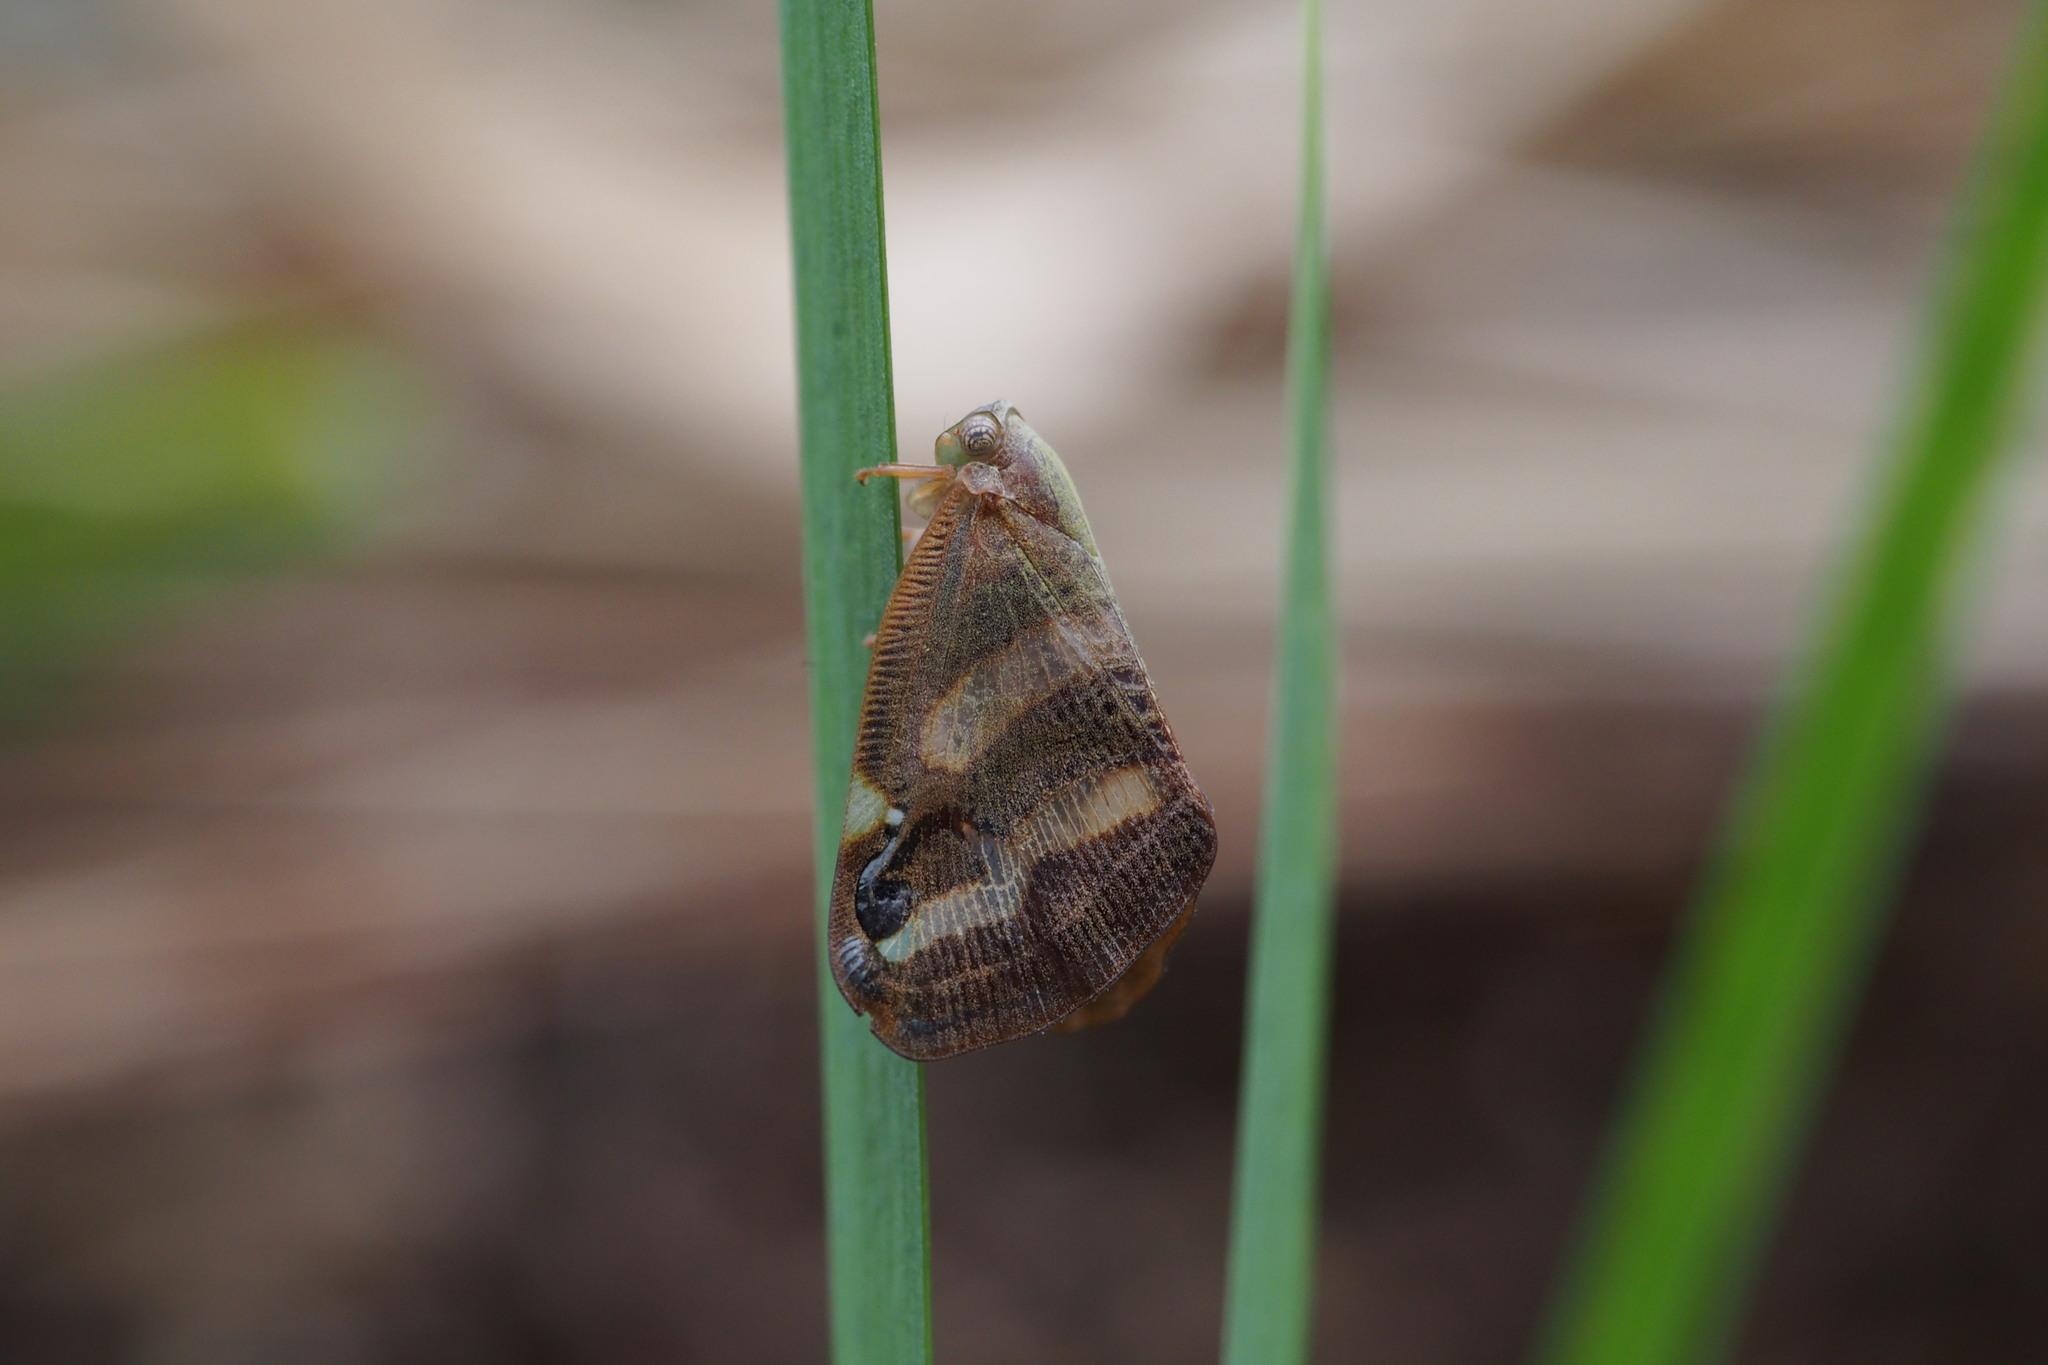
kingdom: Animalia
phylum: Arthropoda
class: Insecta
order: Hemiptera
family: Ricaniidae
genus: Orosanga
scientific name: Orosanga japonica
